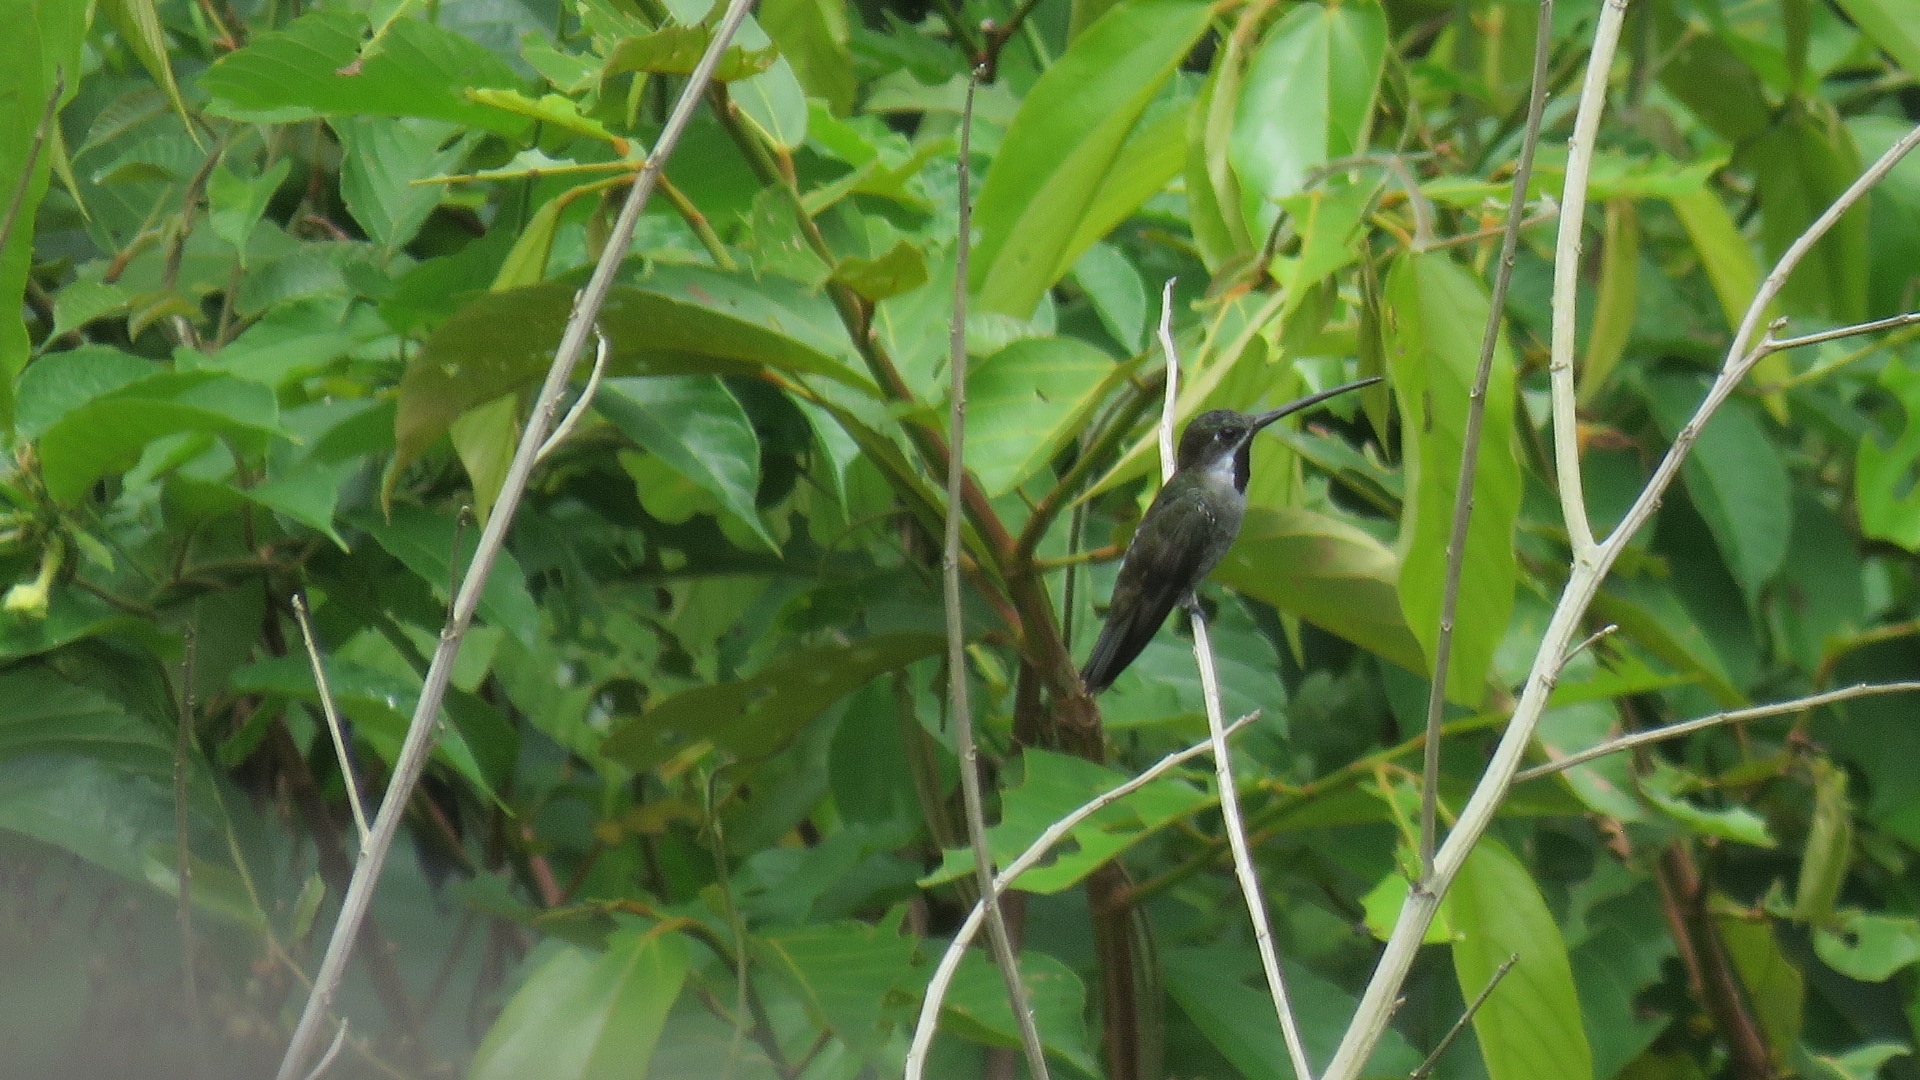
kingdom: Animalia
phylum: Chordata
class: Aves
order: Apodiformes
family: Trochilidae
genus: Heliomaster
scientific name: Heliomaster longirostris
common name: Long-billed starthroat
